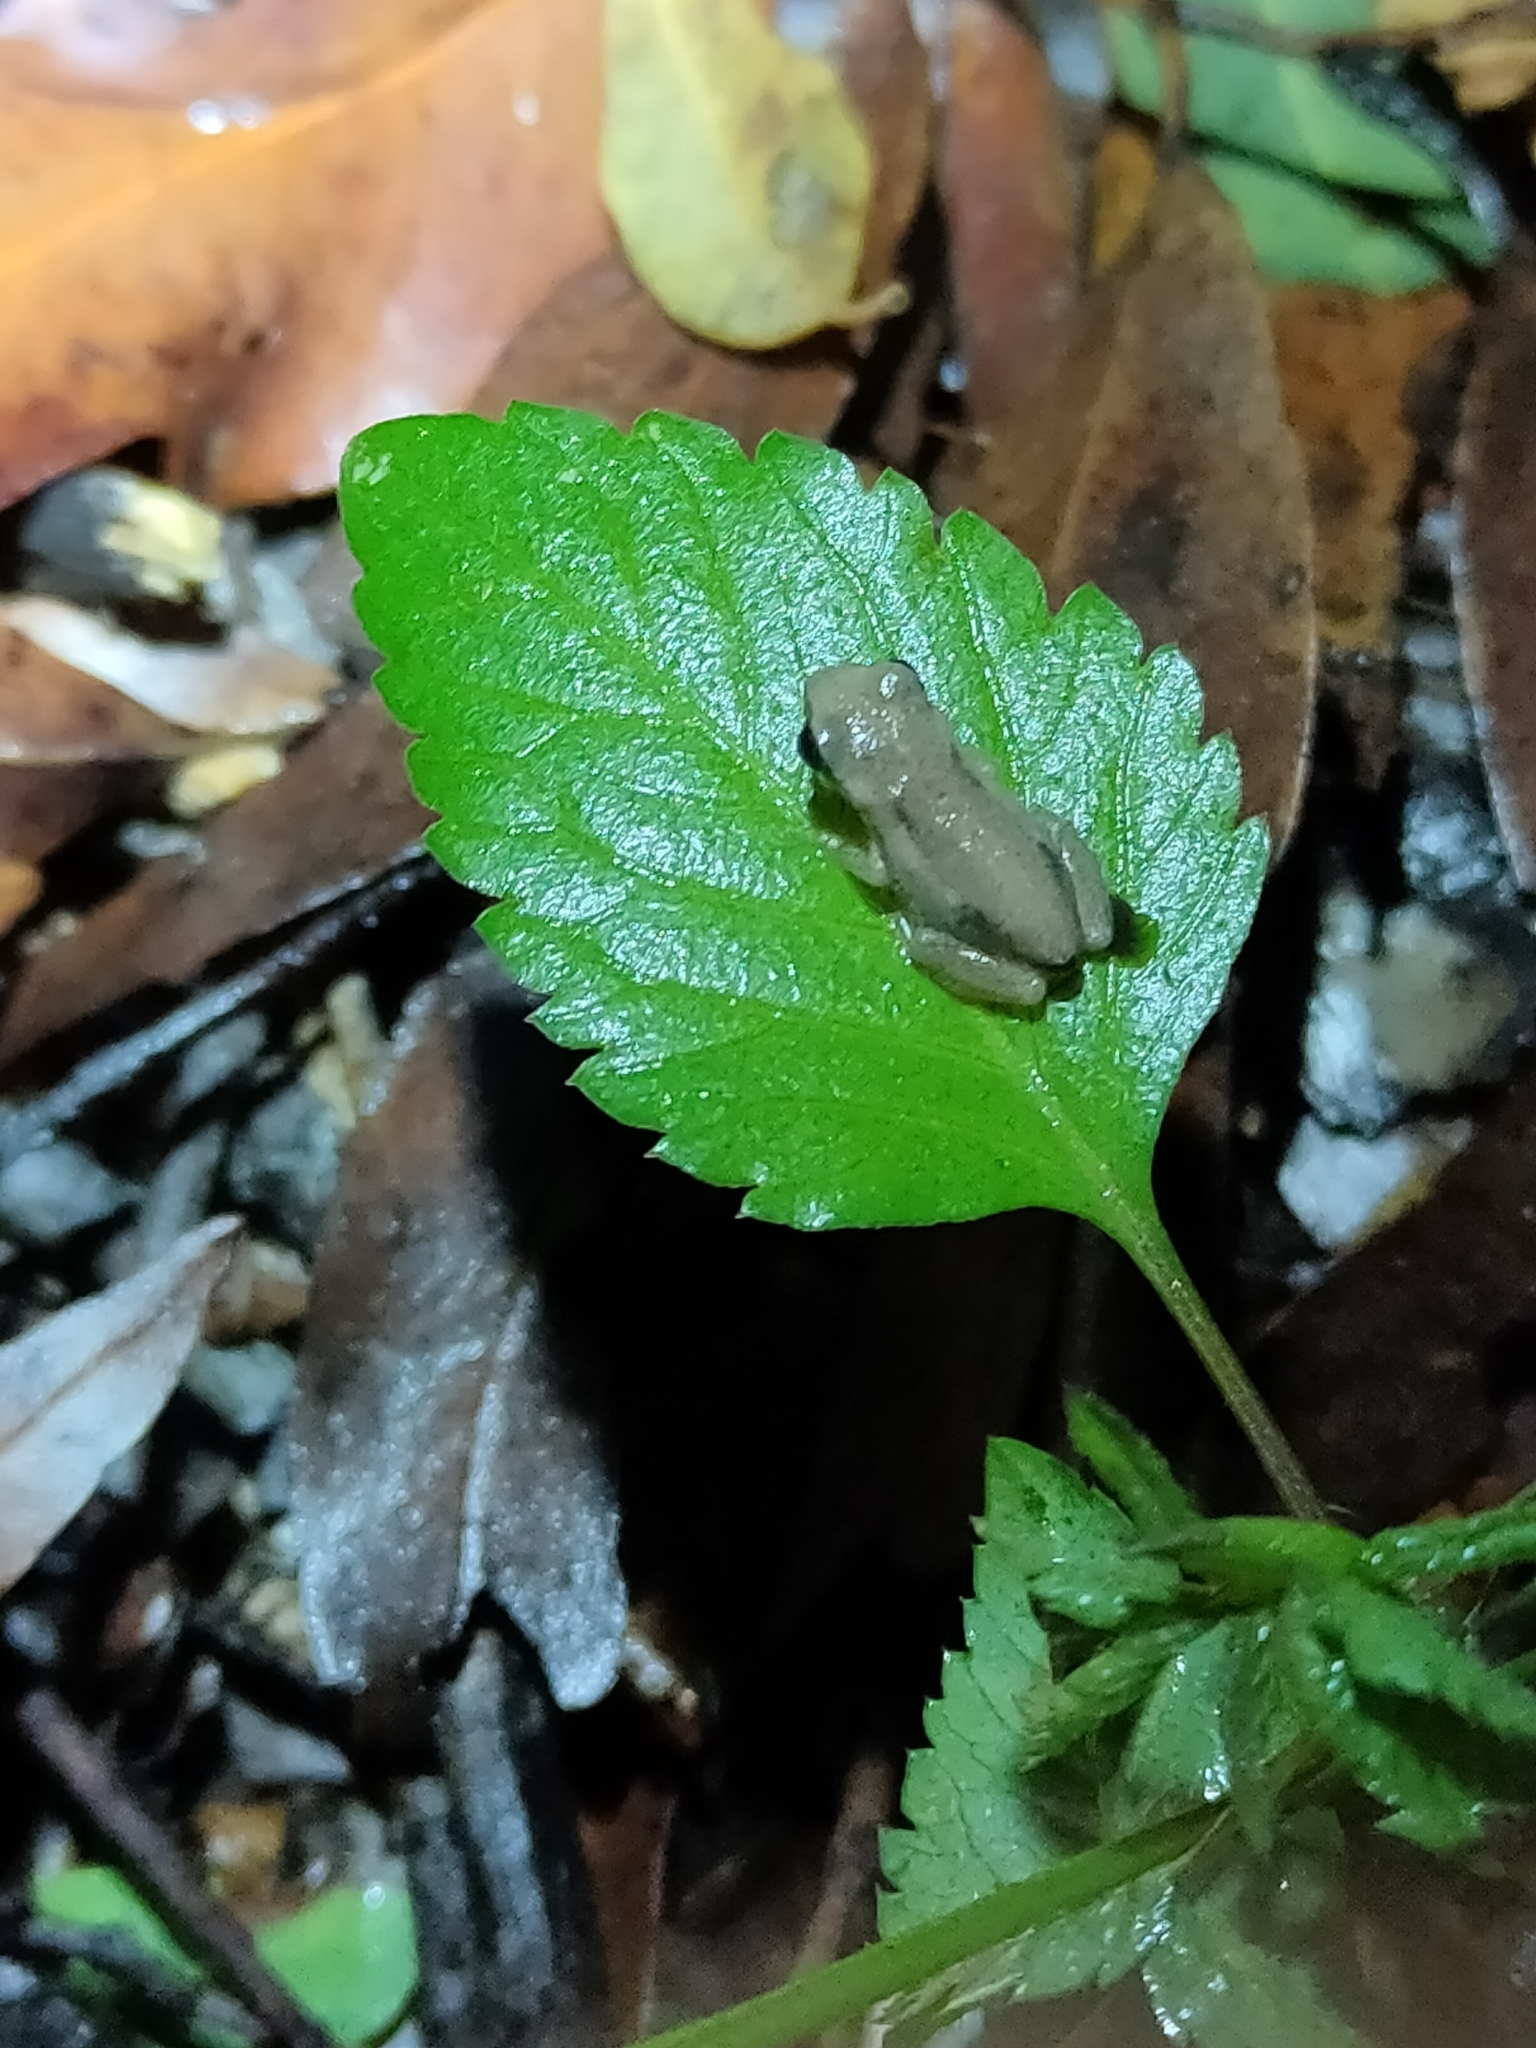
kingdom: Animalia
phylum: Chordata
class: Amphibia
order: Anura
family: Pelodryadidae
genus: Litoria
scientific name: Litoria rubella
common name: Desert tree frog
